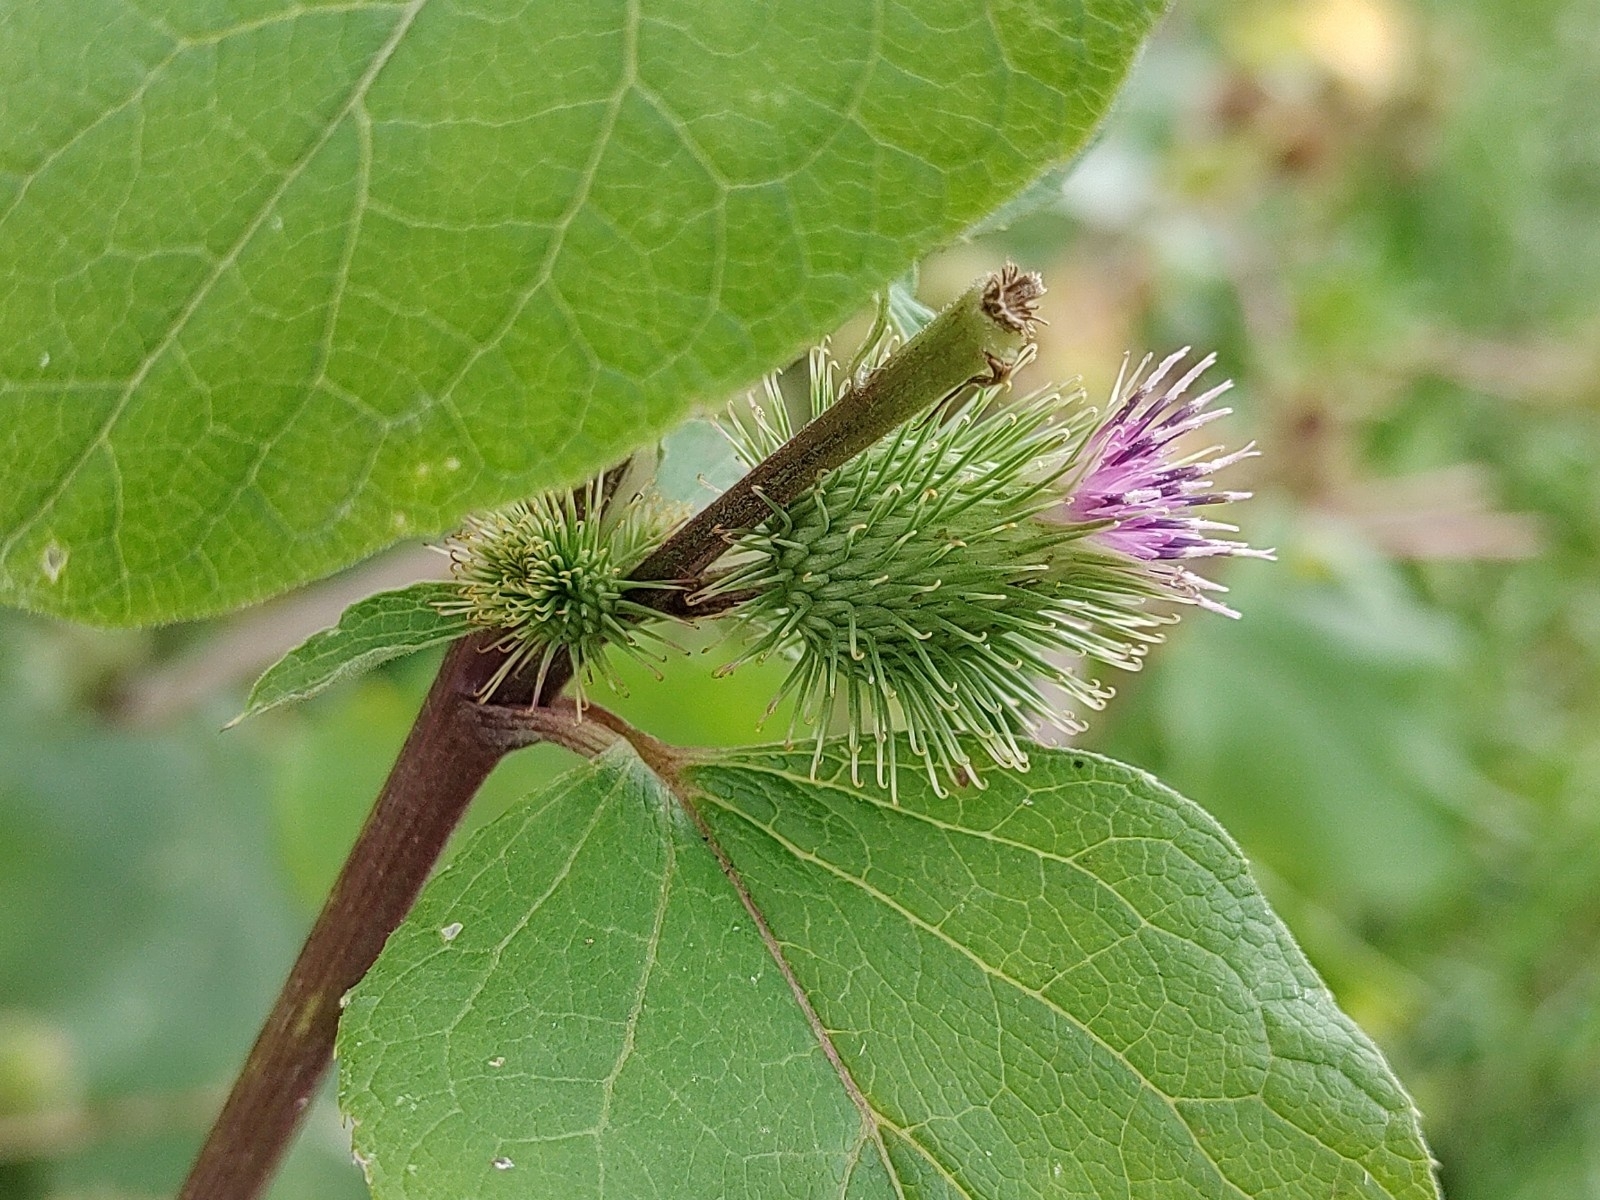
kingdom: Plantae
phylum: Tracheophyta
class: Magnoliopsida
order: Asterales
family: Asteraceae
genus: Arctium
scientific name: Arctium lappa
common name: Greater burdock
